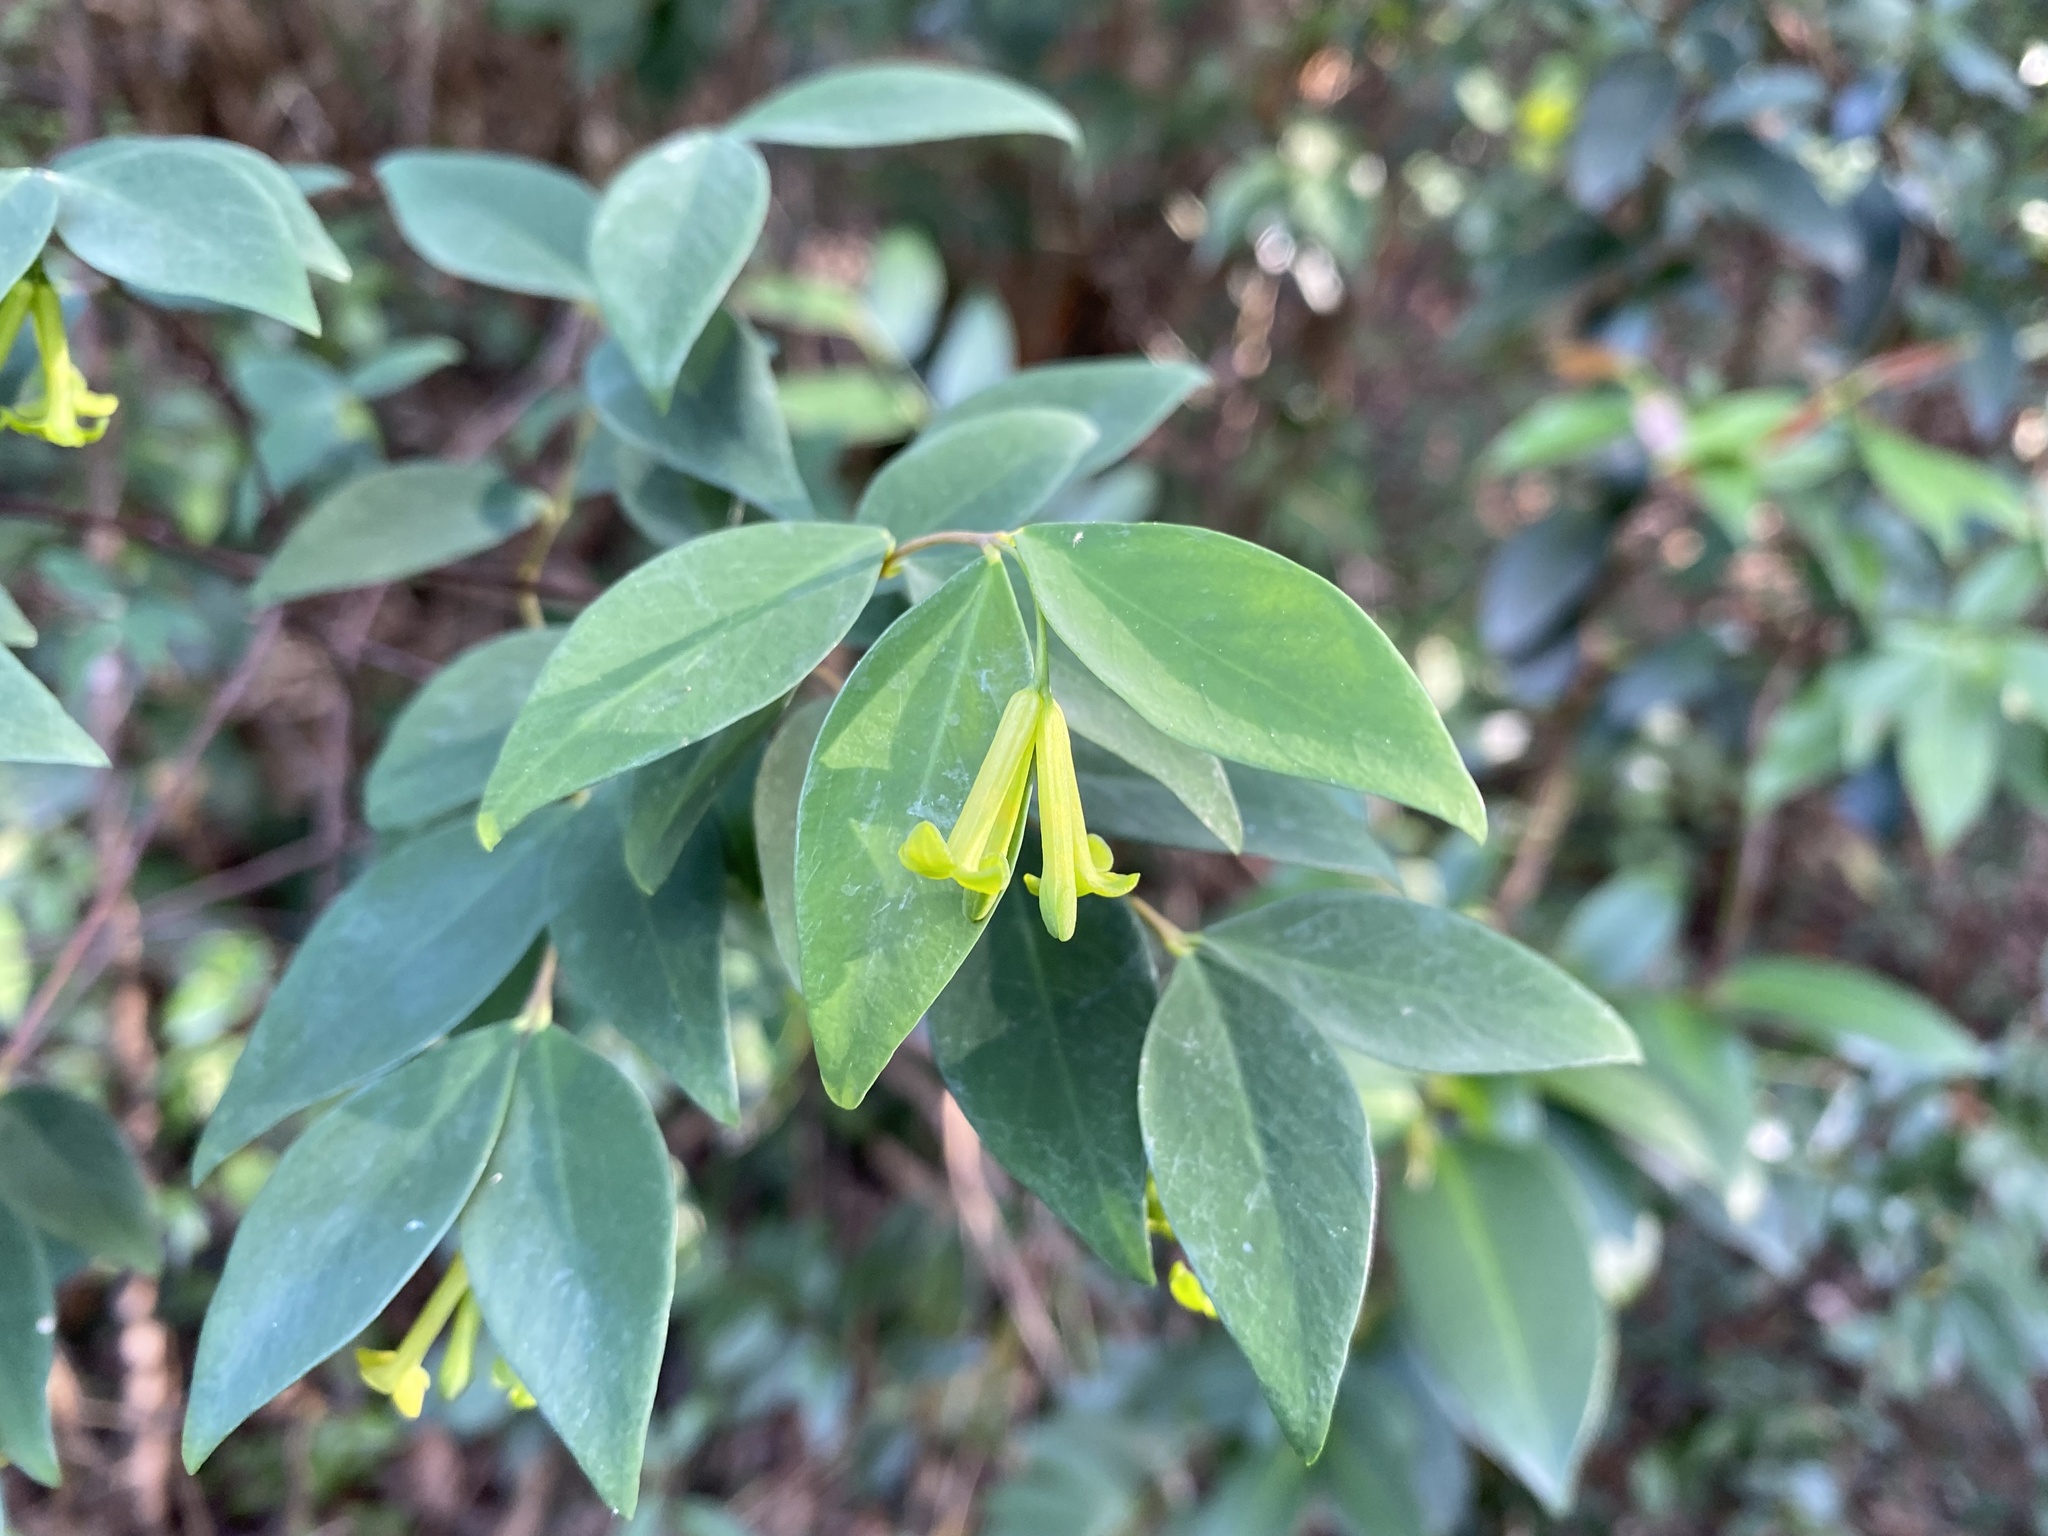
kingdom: Plantae
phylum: Tracheophyta
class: Magnoliopsida
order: Malvales
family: Thymelaeaceae
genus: Wikstroemia
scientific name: Wikstroemia nutans
